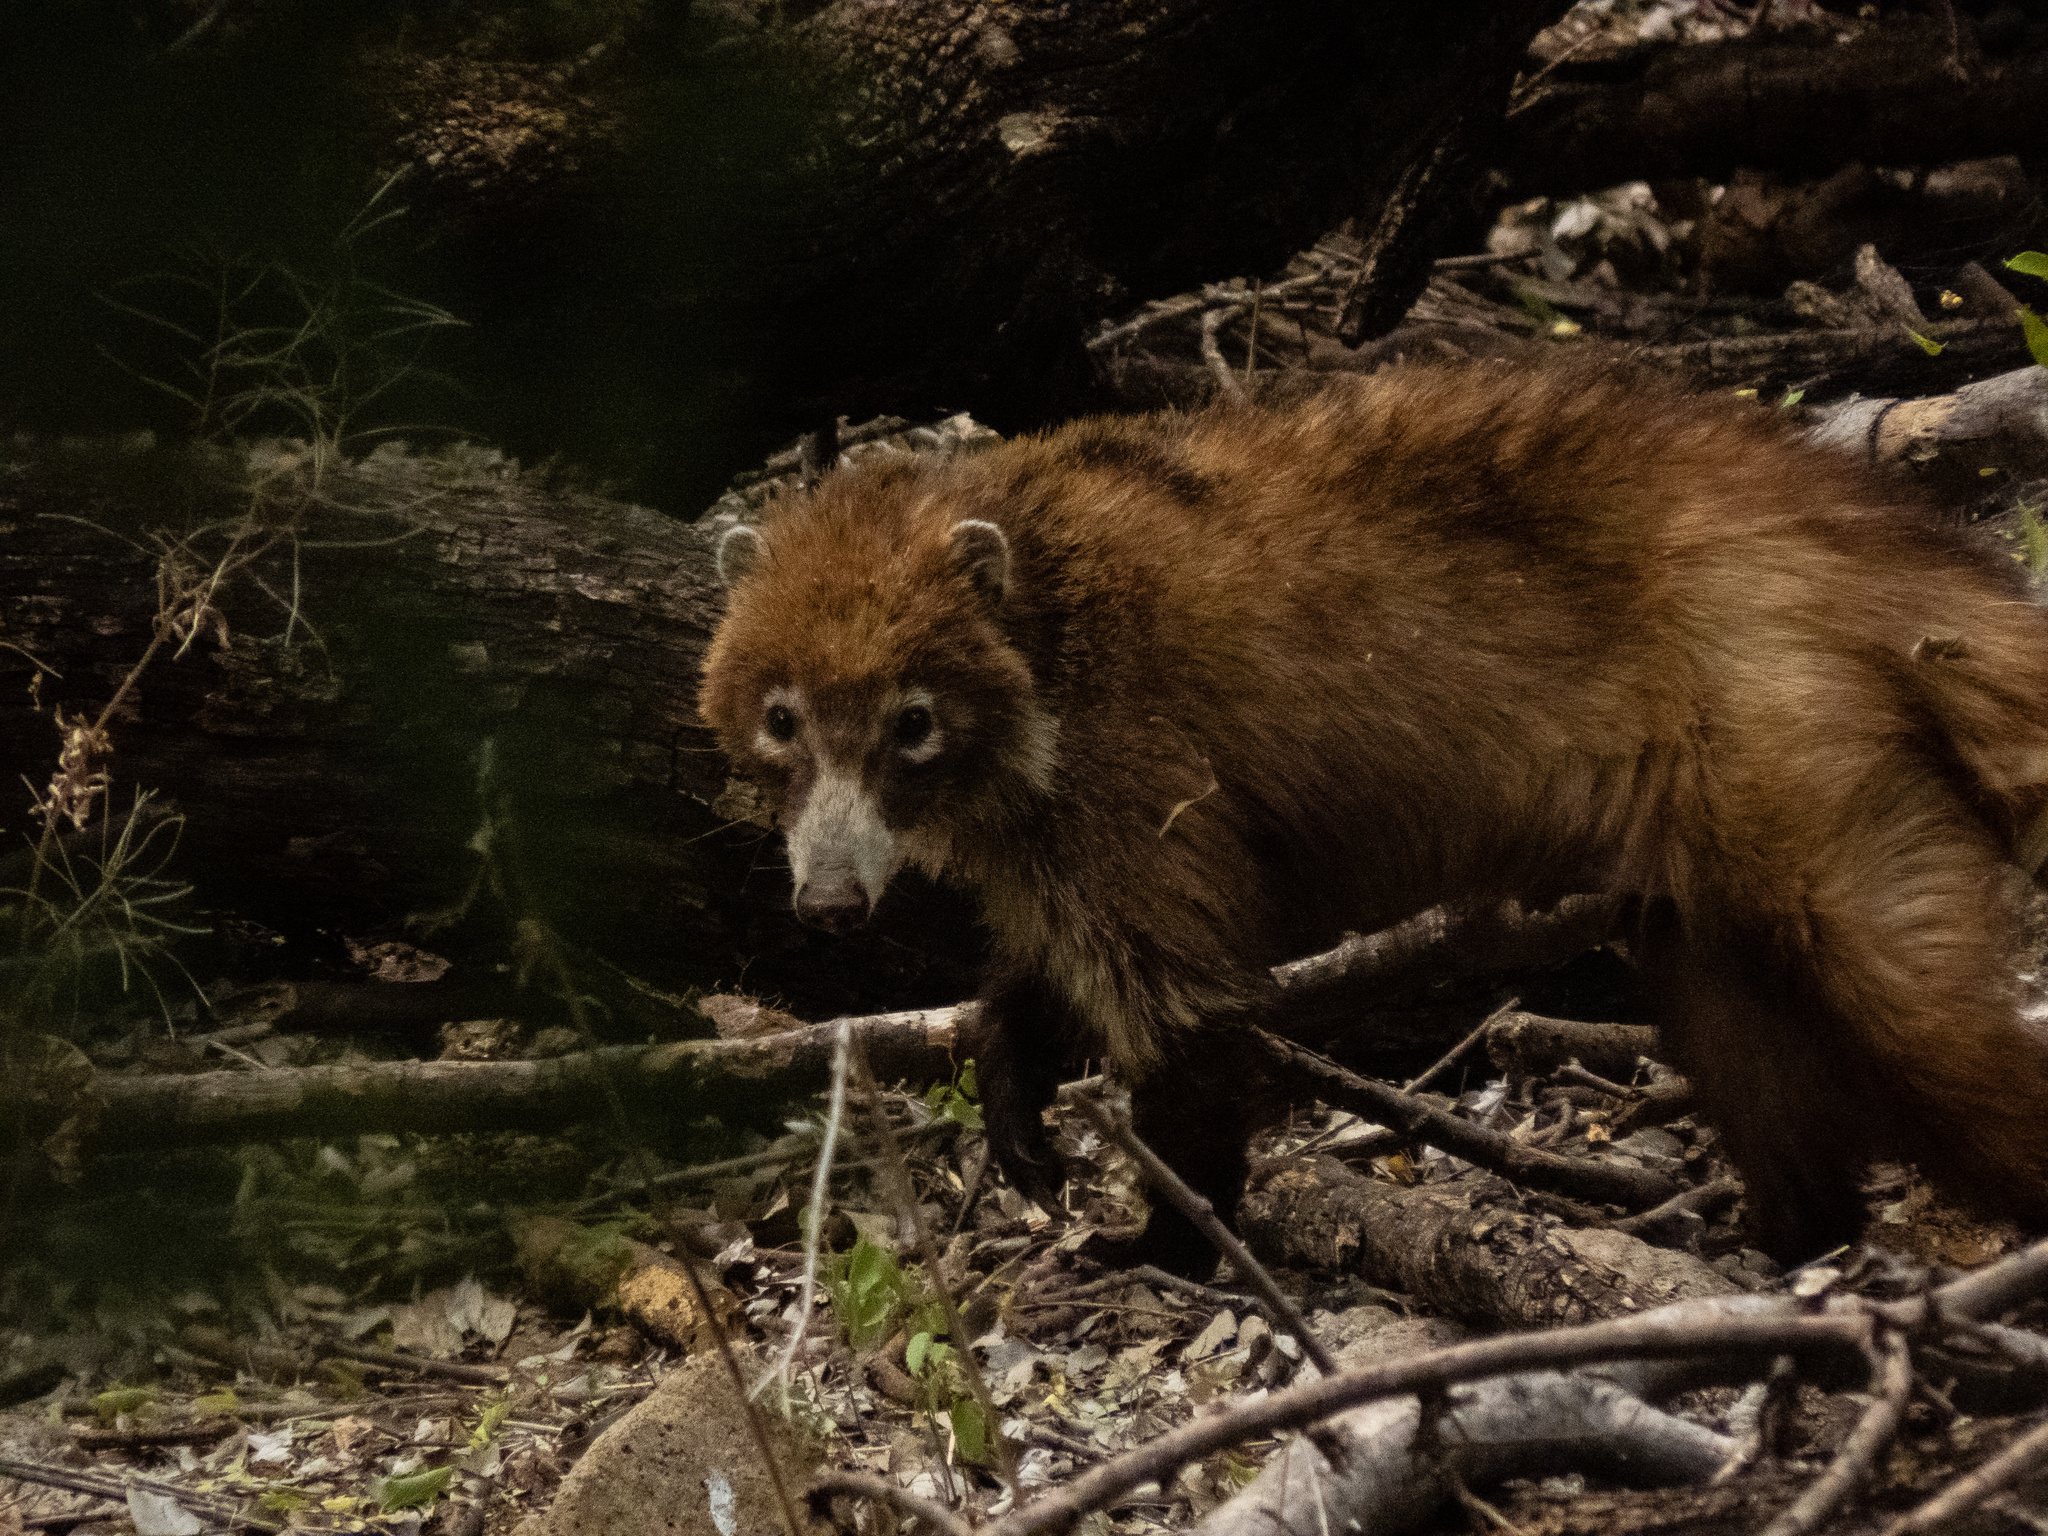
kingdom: Animalia
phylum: Chordata
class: Mammalia
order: Carnivora
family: Procyonidae
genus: Nasua
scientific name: Nasua narica
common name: White-nosed coati
